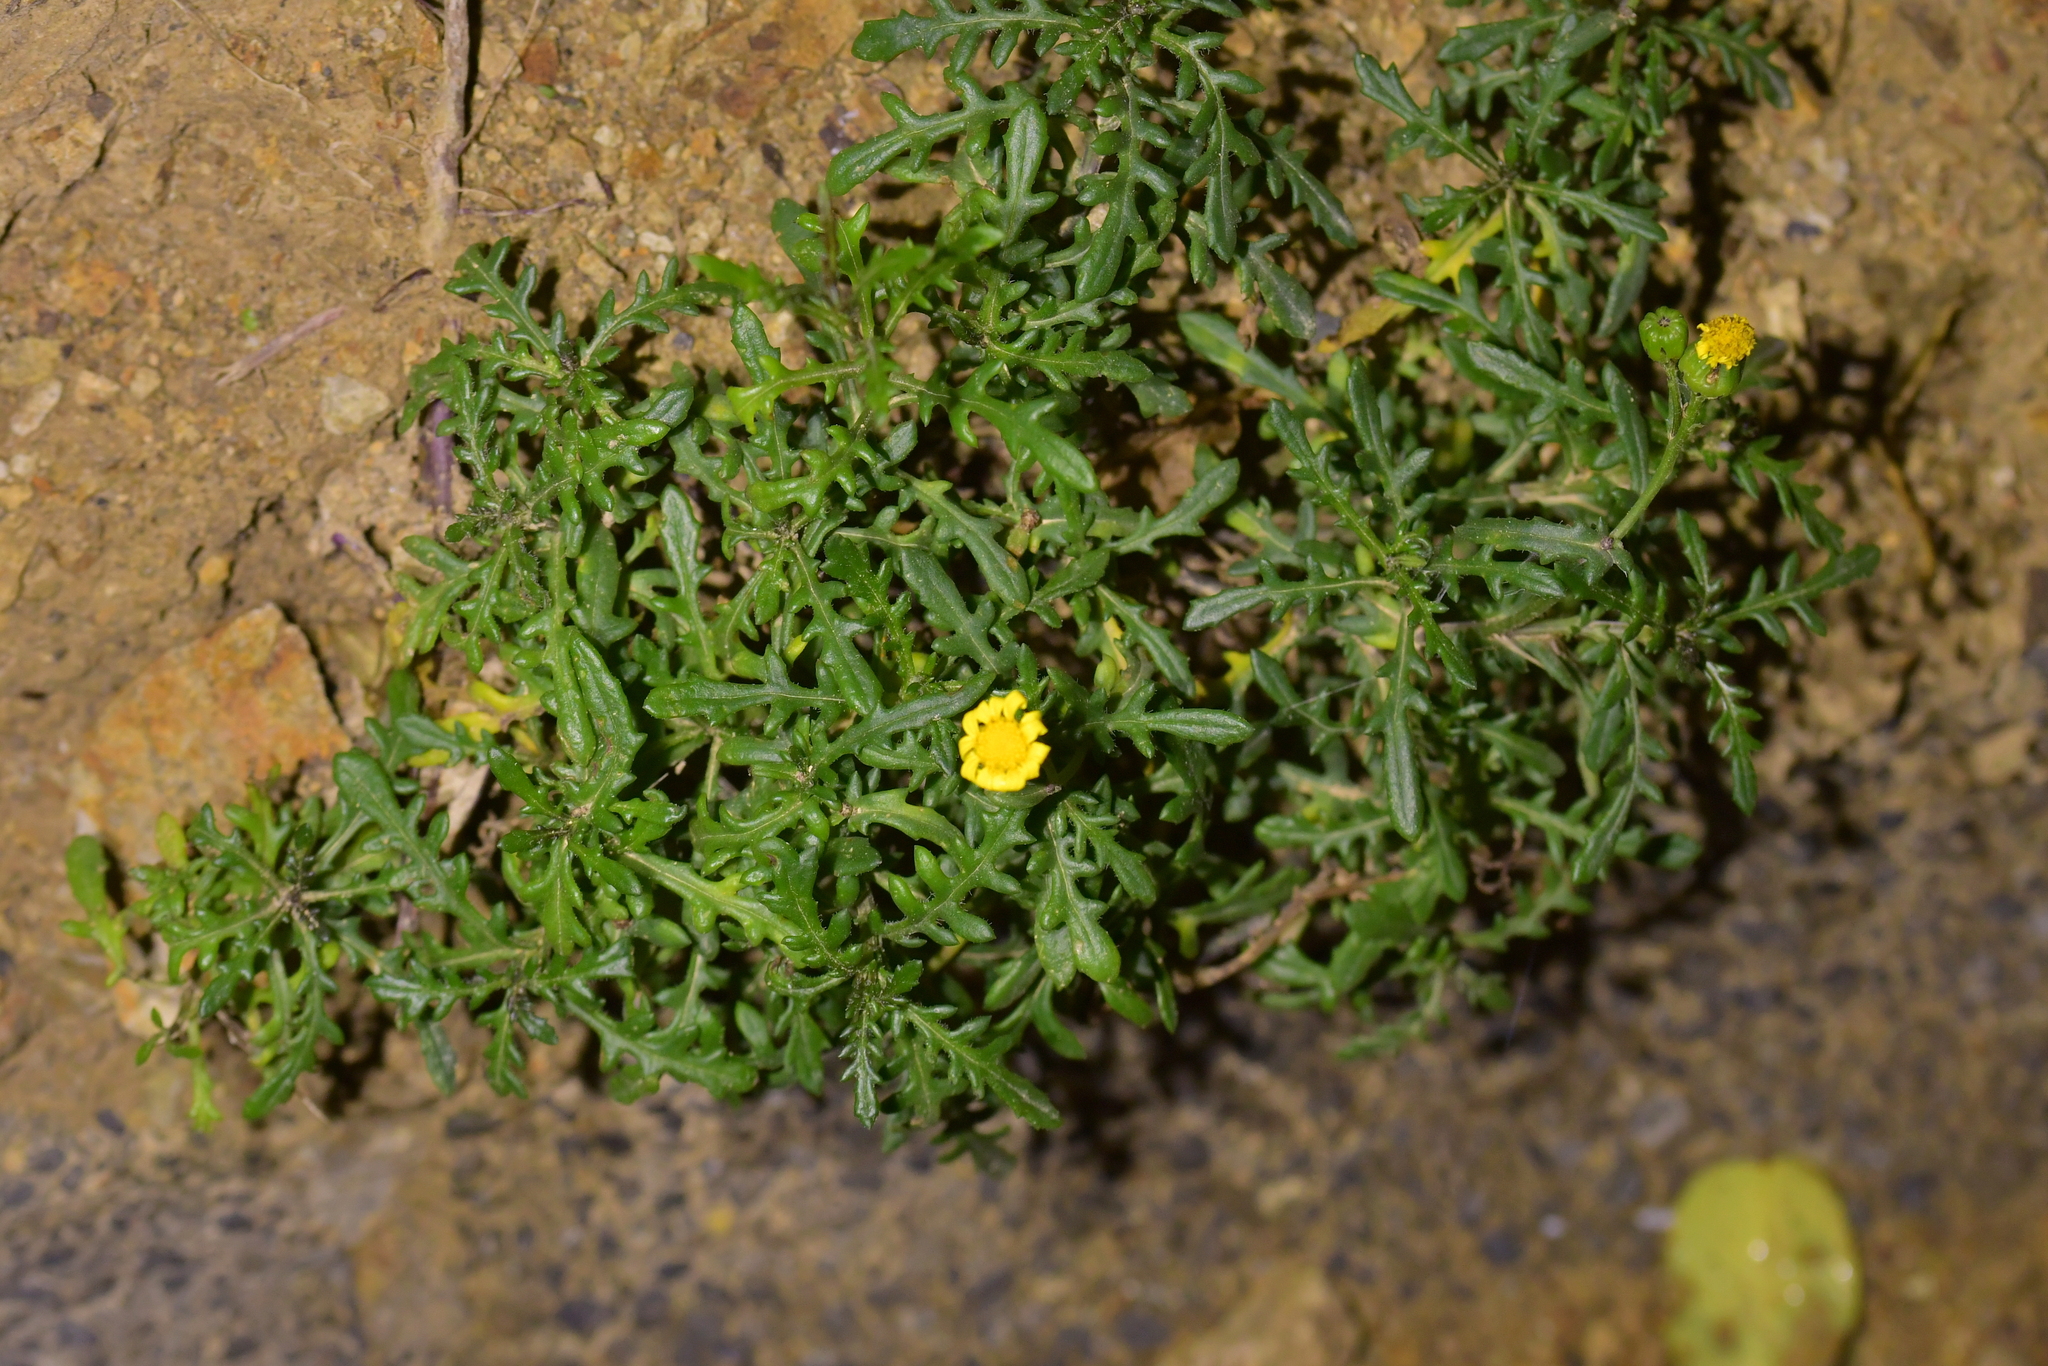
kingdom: Plantae
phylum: Tracheophyta
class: Magnoliopsida
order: Asterales
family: Asteraceae
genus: Senecio
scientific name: Senecio lautus
